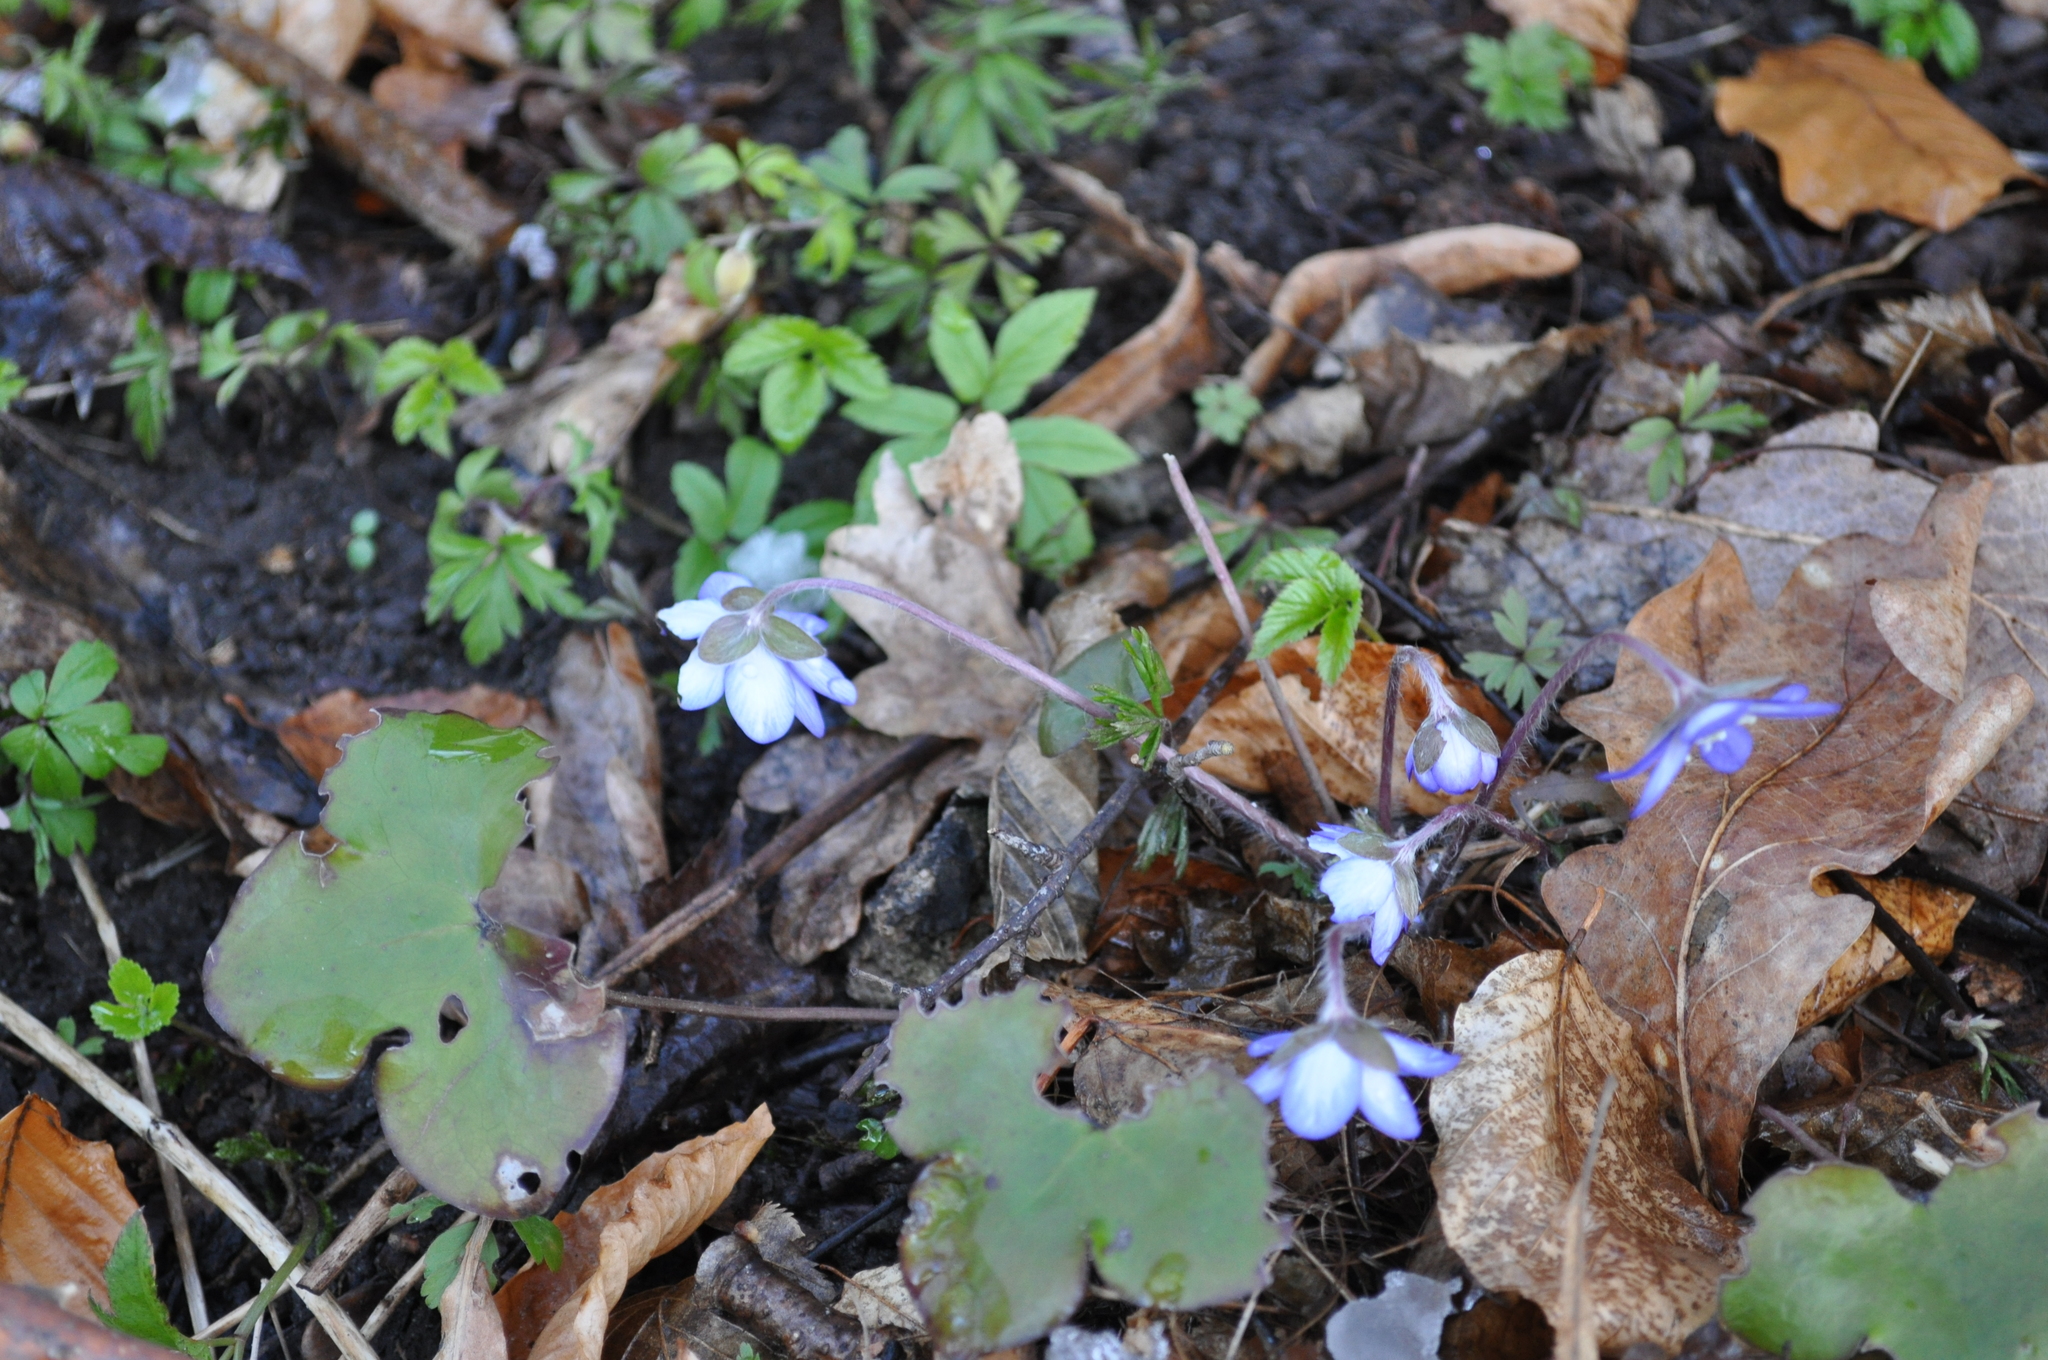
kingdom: Plantae
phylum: Tracheophyta
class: Magnoliopsida
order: Ranunculales
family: Ranunculaceae
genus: Hepatica
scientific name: Hepatica nobilis
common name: Liverleaf
